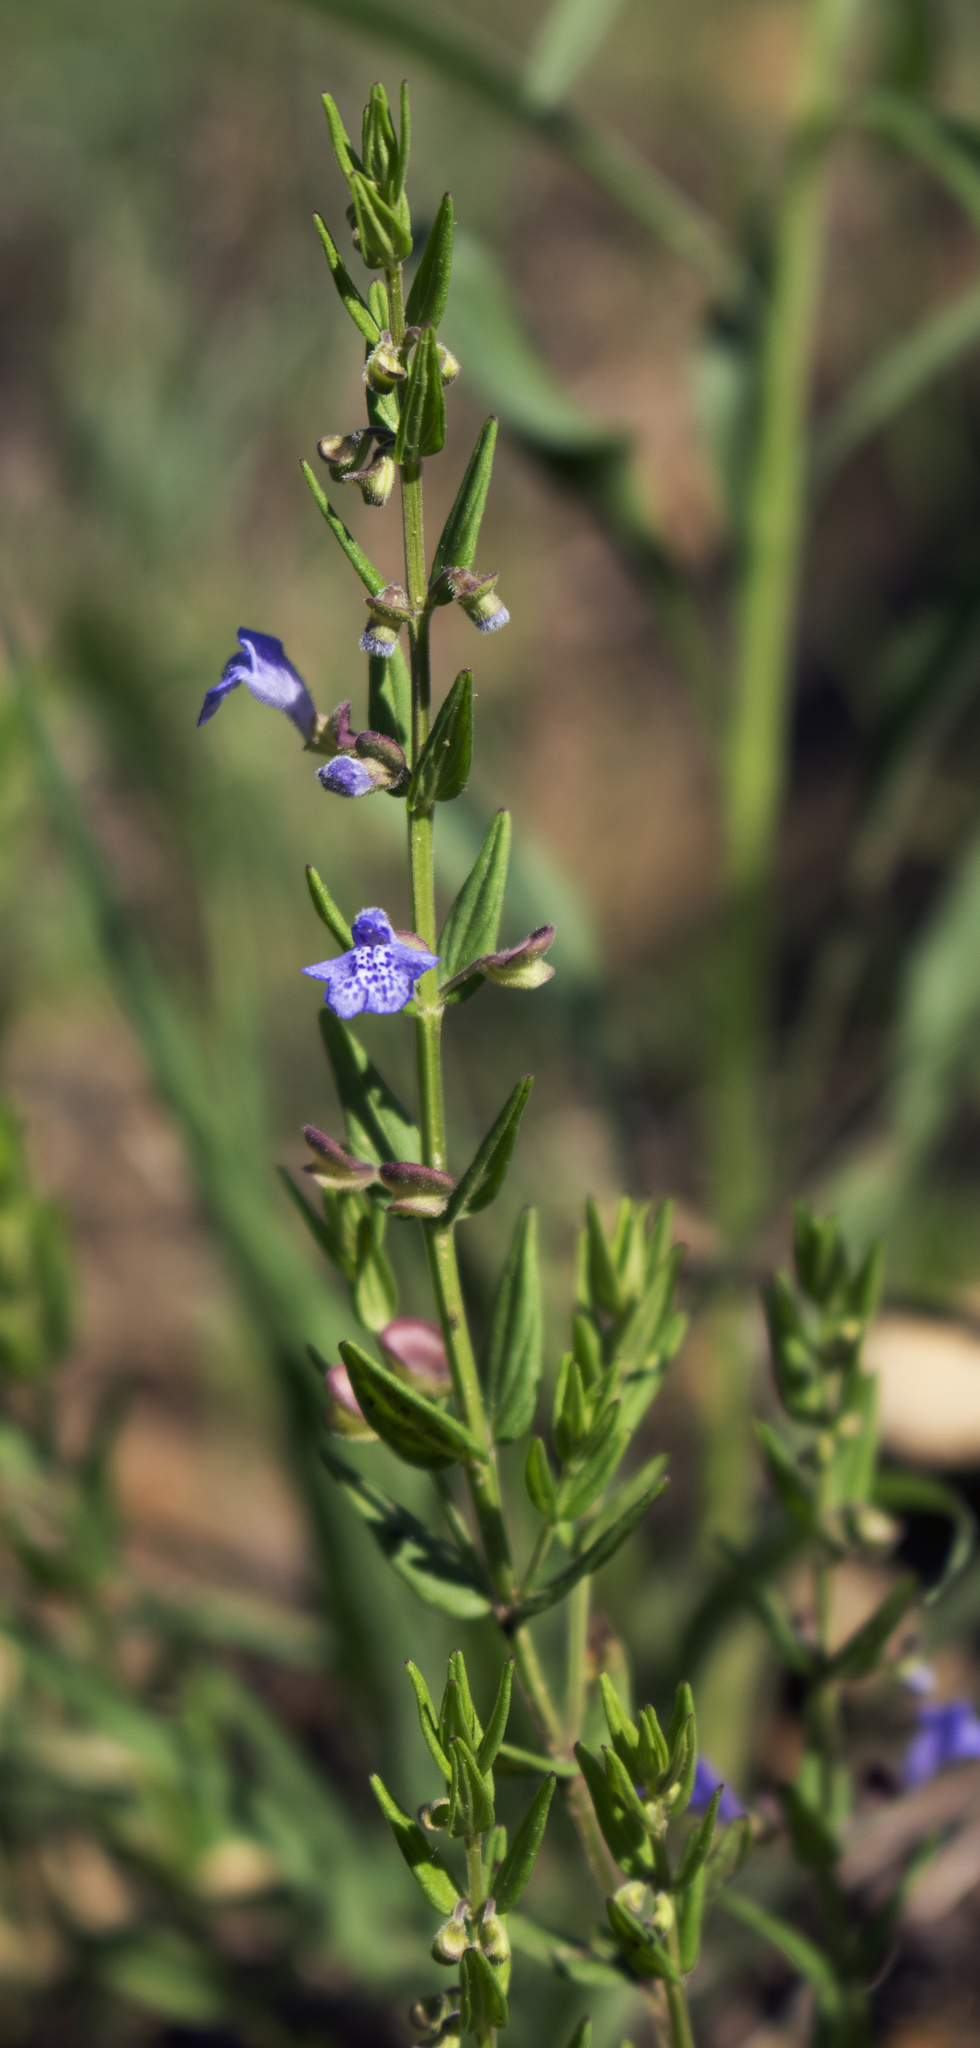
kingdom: Plantae
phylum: Tracheophyta
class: Magnoliopsida
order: Lamiales
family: Lamiaceae
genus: Scutellaria
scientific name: Scutellaria parvula
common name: Little scullcap
